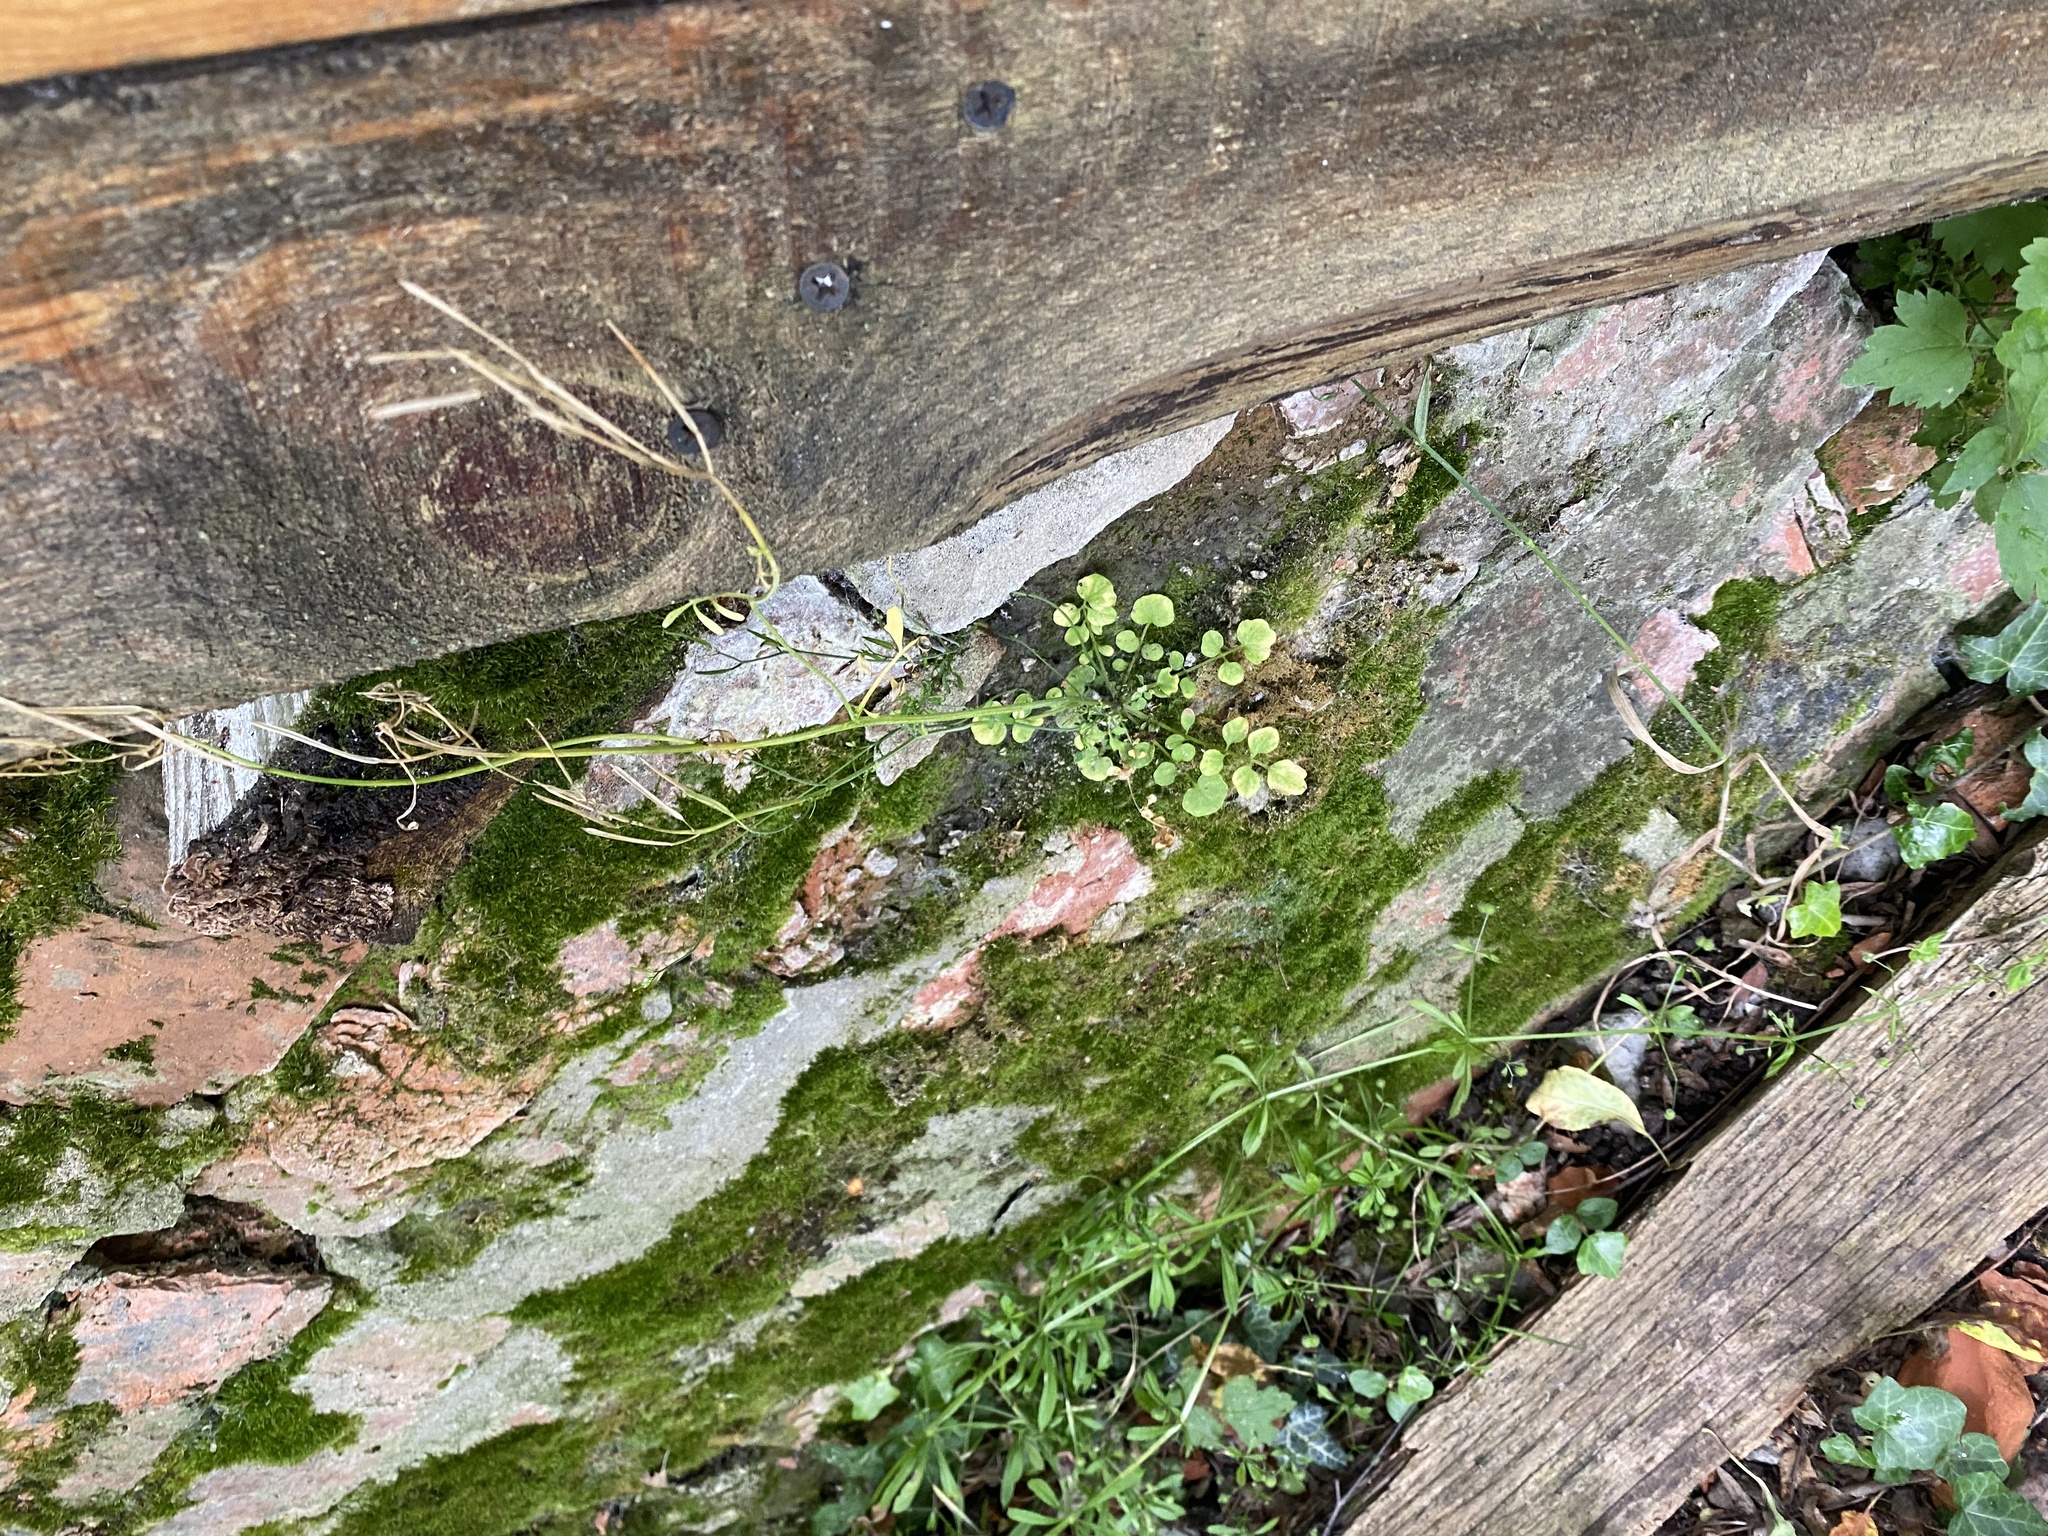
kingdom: Plantae
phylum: Tracheophyta
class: Magnoliopsida
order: Brassicales
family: Brassicaceae
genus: Cardamine
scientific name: Cardamine hirsuta
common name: Hairy bittercress
